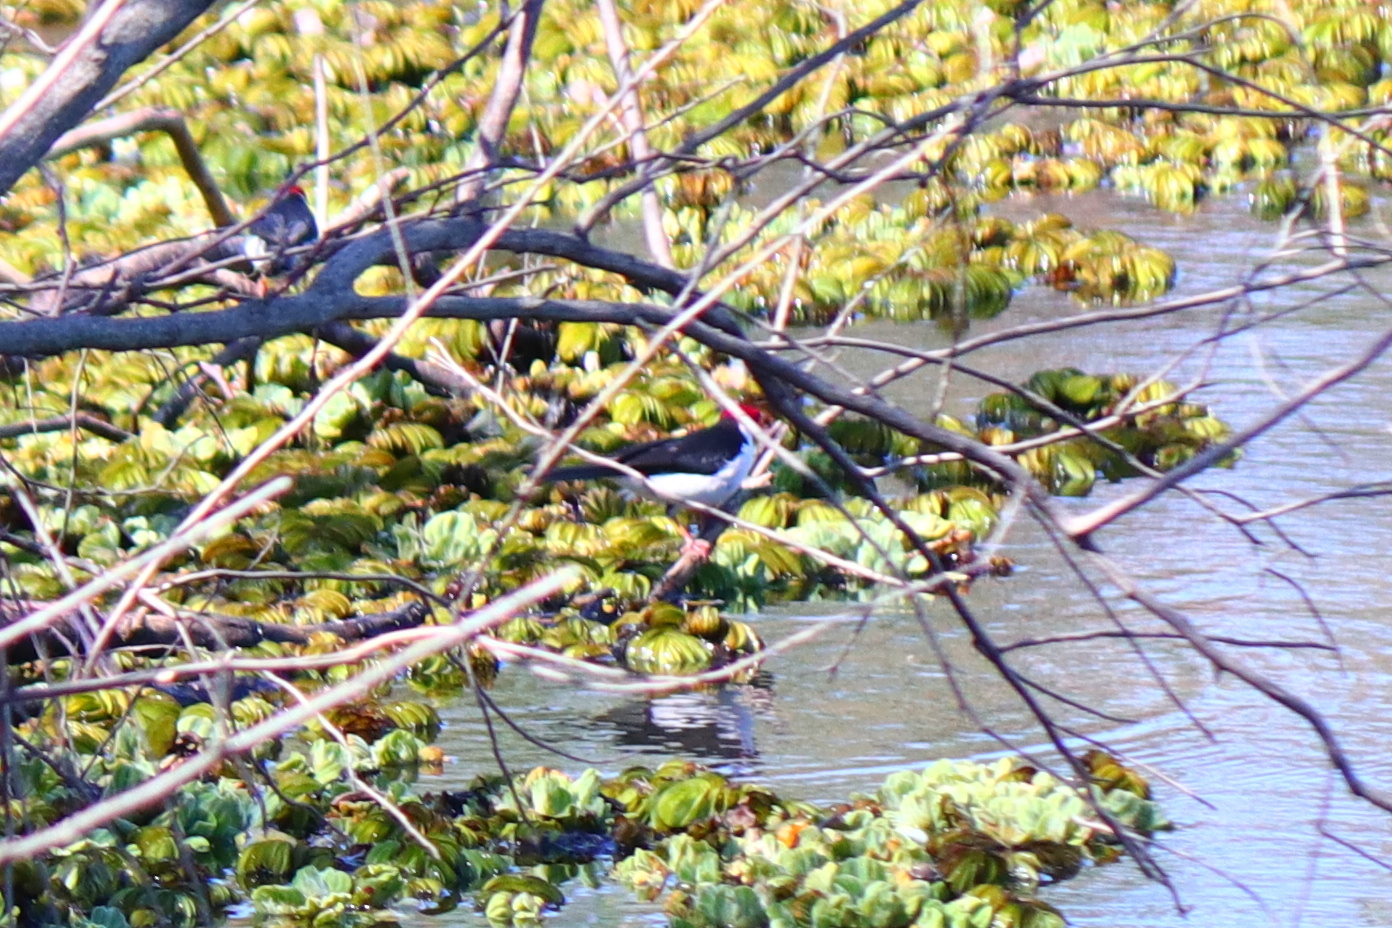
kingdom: Animalia
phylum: Chordata
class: Aves
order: Passeriformes
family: Thraupidae
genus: Paroaria
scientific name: Paroaria capitata
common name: Yellow-billed cardinal
